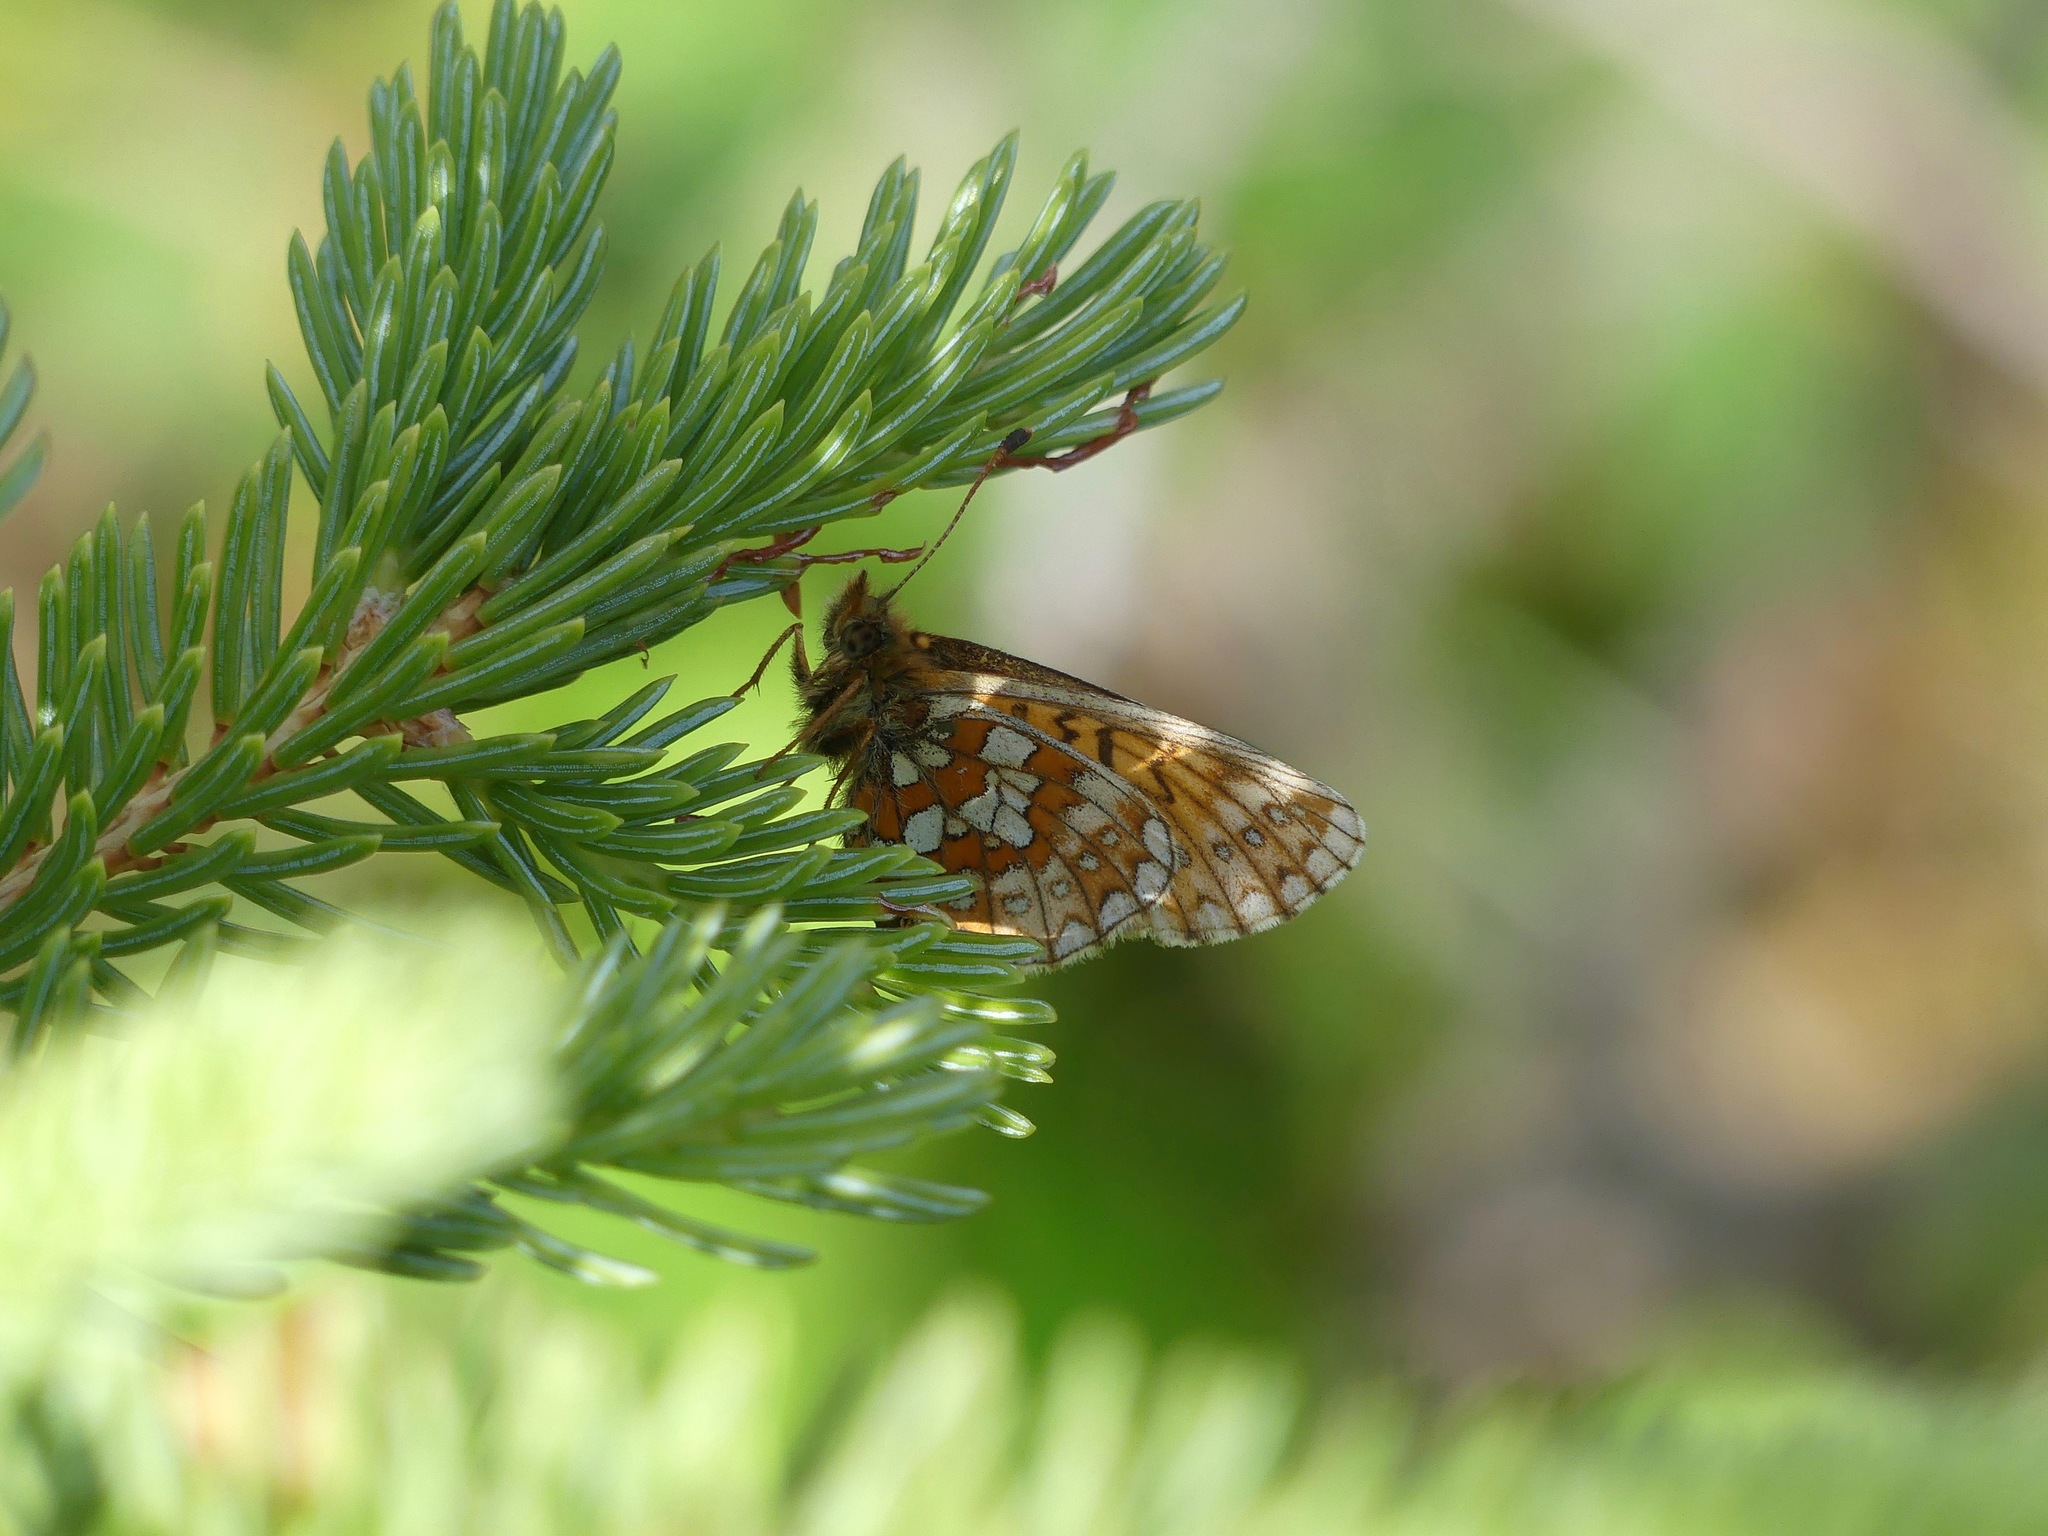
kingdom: Animalia
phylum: Arthropoda
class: Insecta
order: Lepidoptera
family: Nymphalidae
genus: Boloria
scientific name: Boloria eunomia
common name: Bog fritillary
